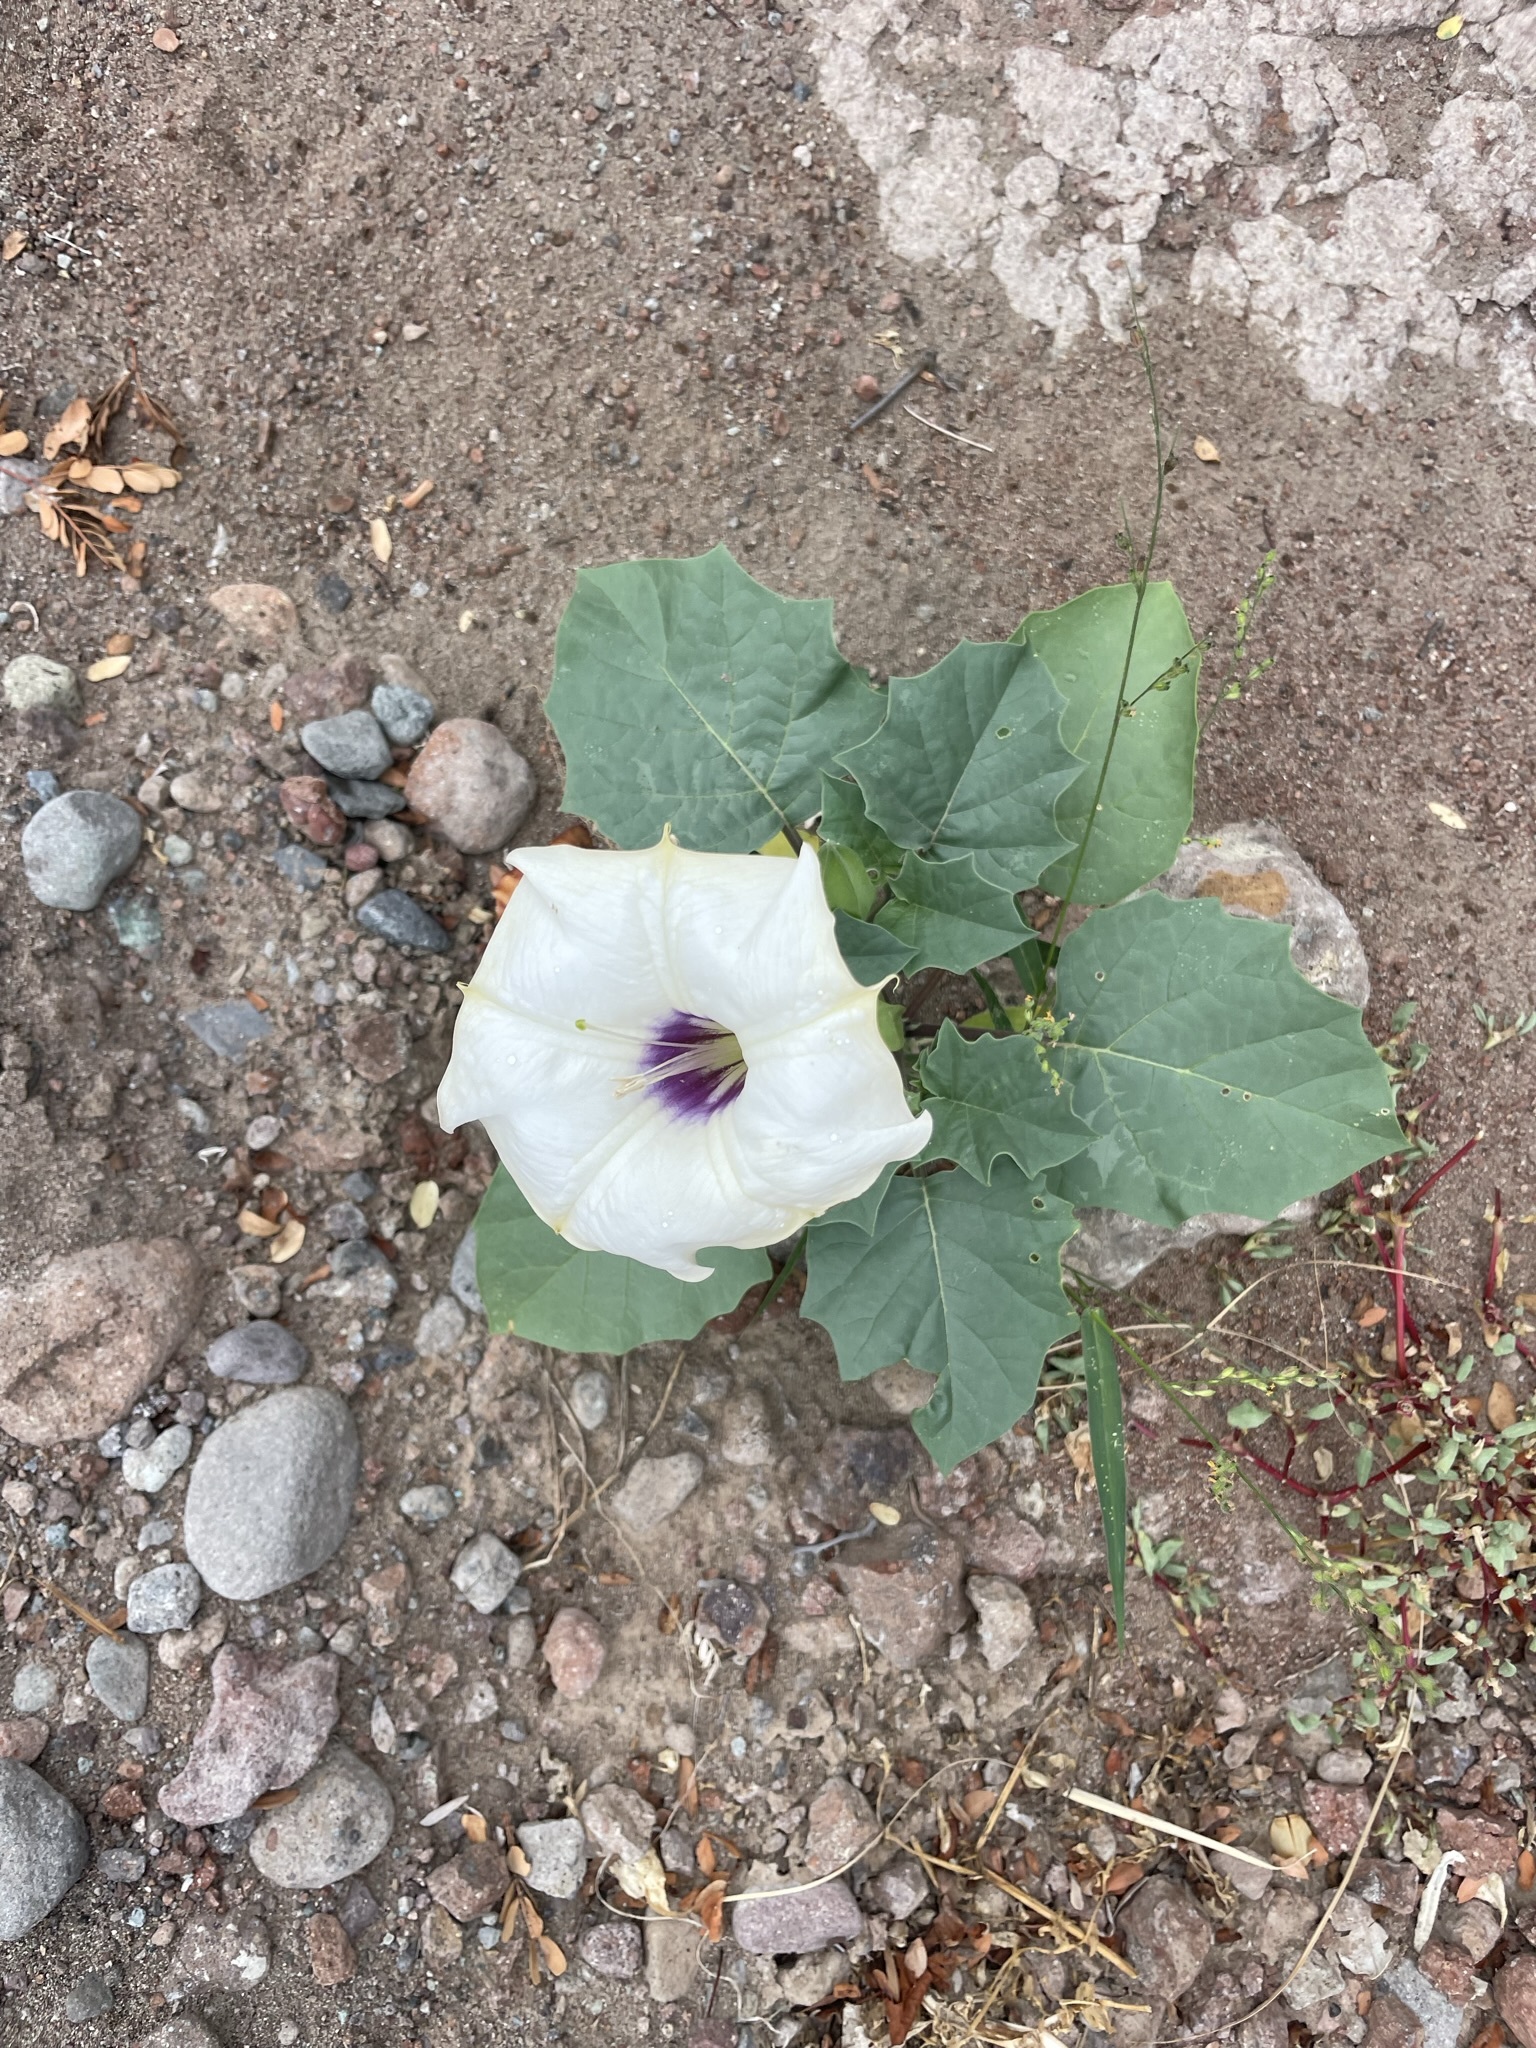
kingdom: Plantae
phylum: Tracheophyta
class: Magnoliopsida
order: Solanales
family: Solanaceae
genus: Datura
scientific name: Datura discolor
